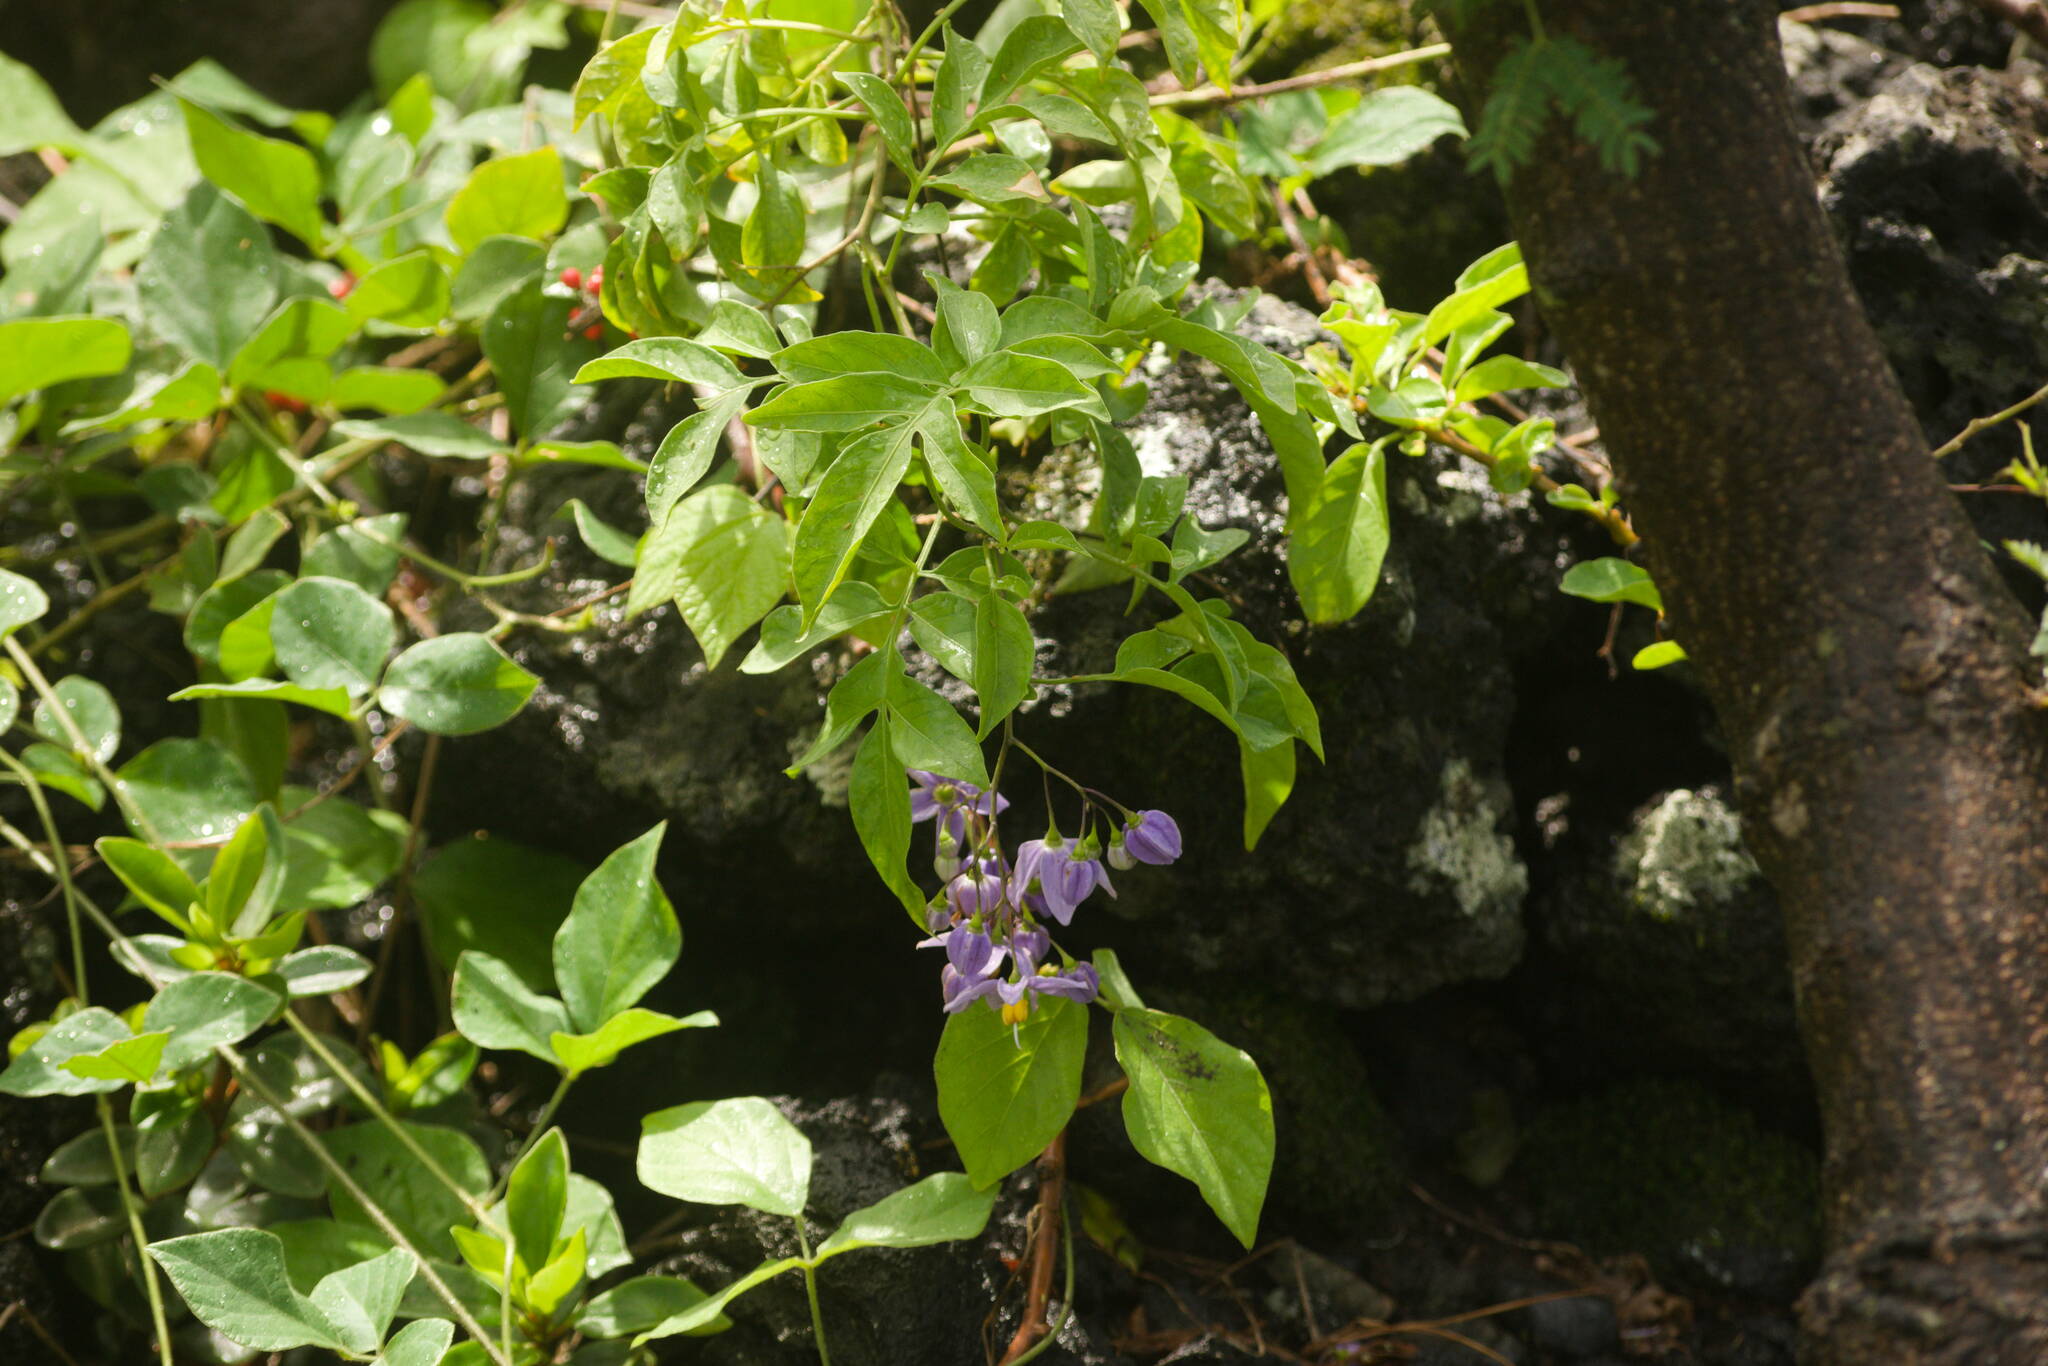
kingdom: Plantae
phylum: Tracheophyta
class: Magnoliopsida
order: Solanales
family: Solanaceae
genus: Solanum
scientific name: Solanum seaforthianum
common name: Brazilian nightshade
